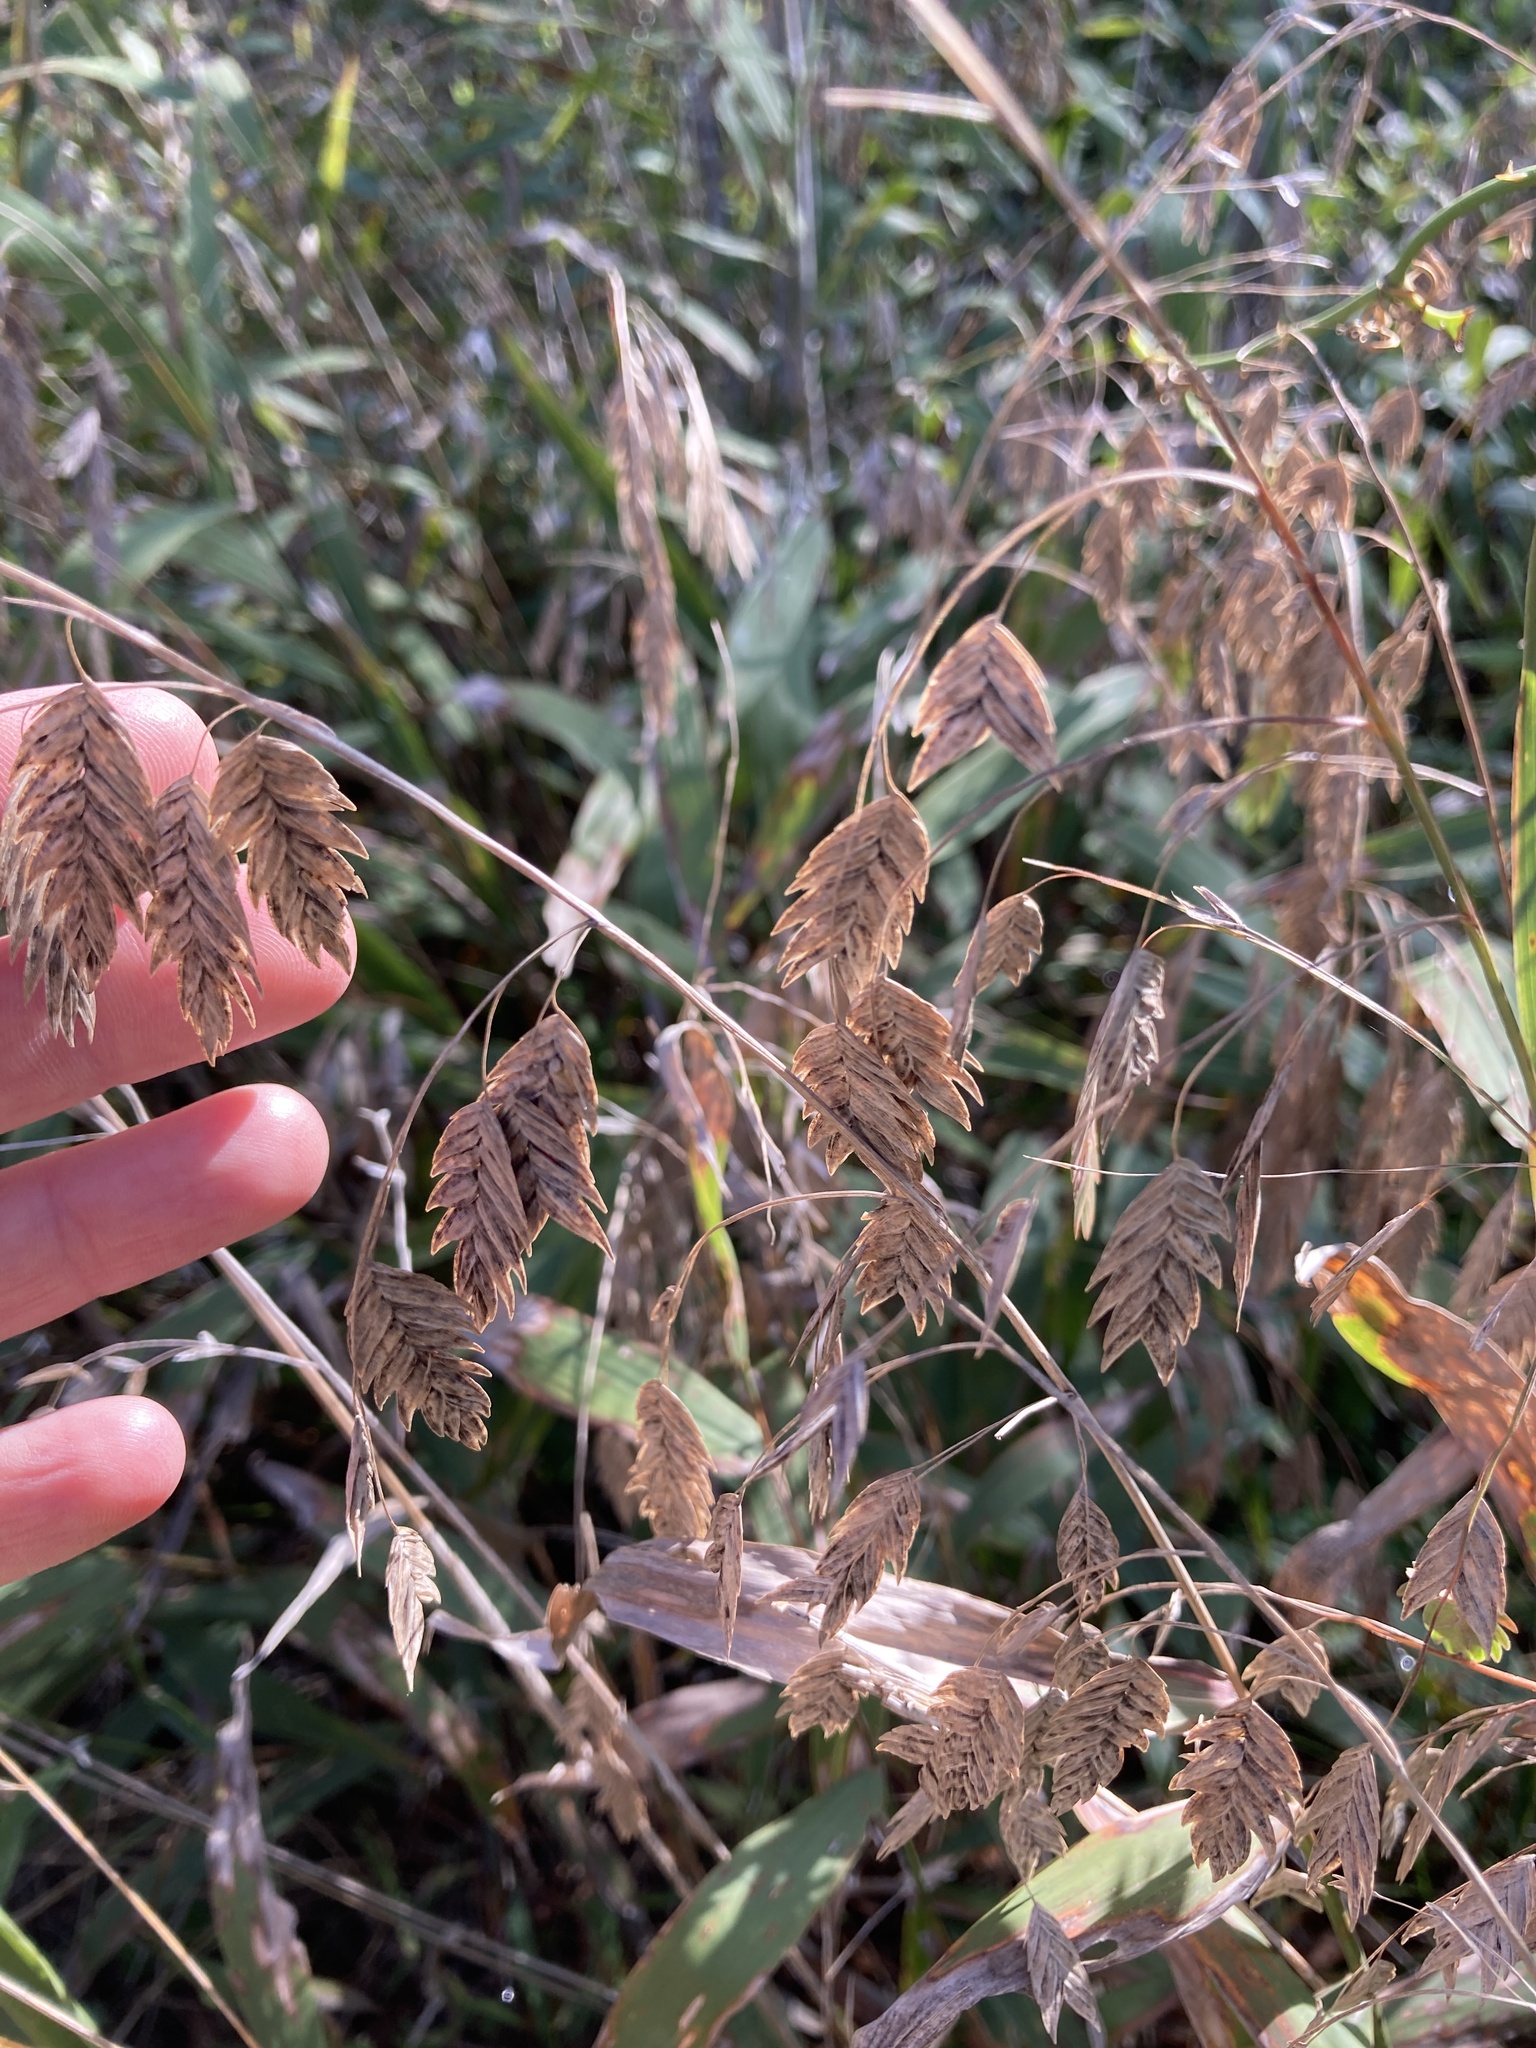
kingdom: Plantae
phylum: Tracheophyta
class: Liliopsida
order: Poales
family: Poaceae
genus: Chasmanthium
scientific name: Chasmanthium latifolium
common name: Broad-leaved chasmanthium
